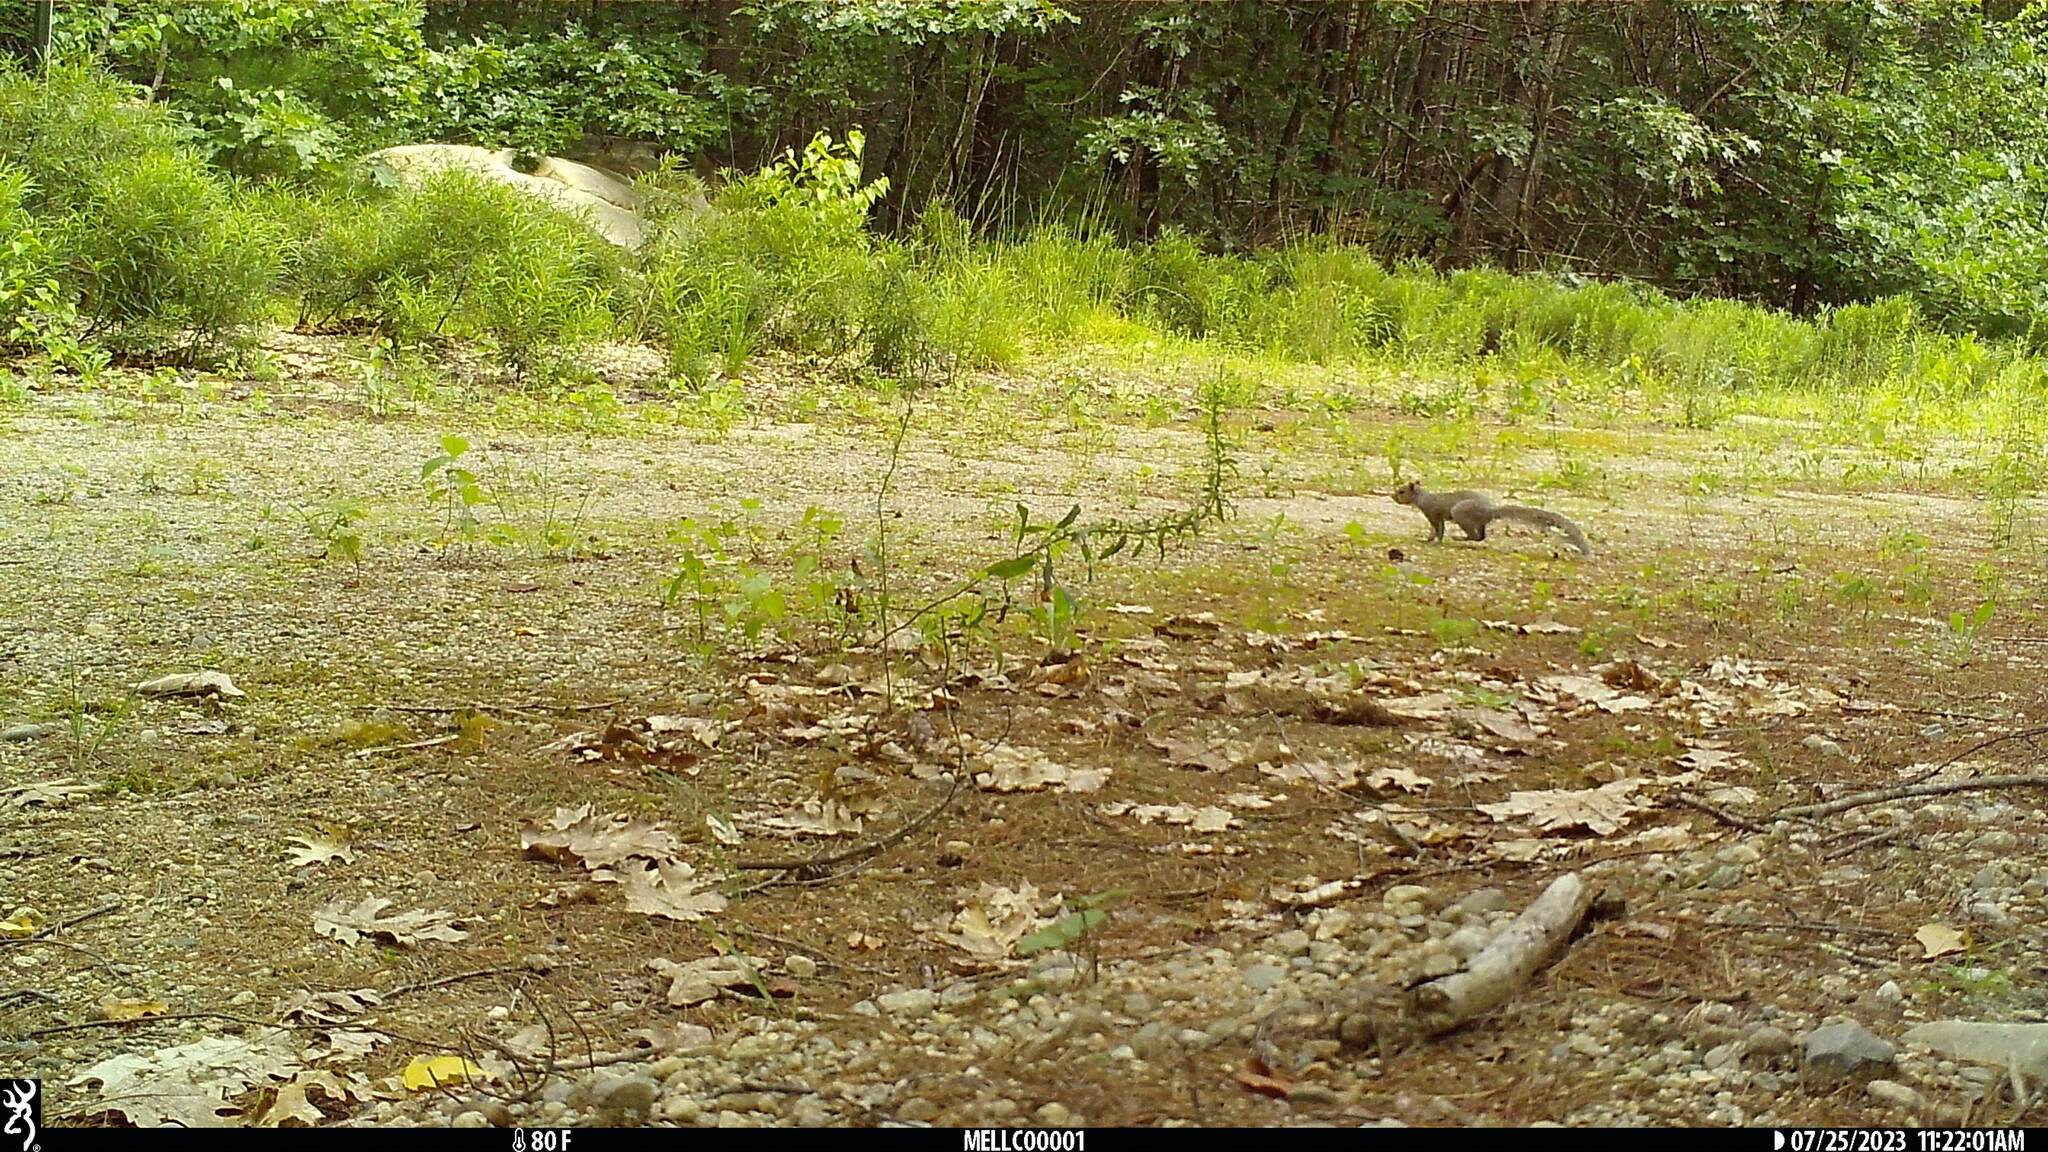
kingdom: Animalia
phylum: Chordata
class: Mammalia
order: Rodentia
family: Sciuridae
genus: Sciurus
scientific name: Sciurus carolinensis
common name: Eastern gray squirrel
